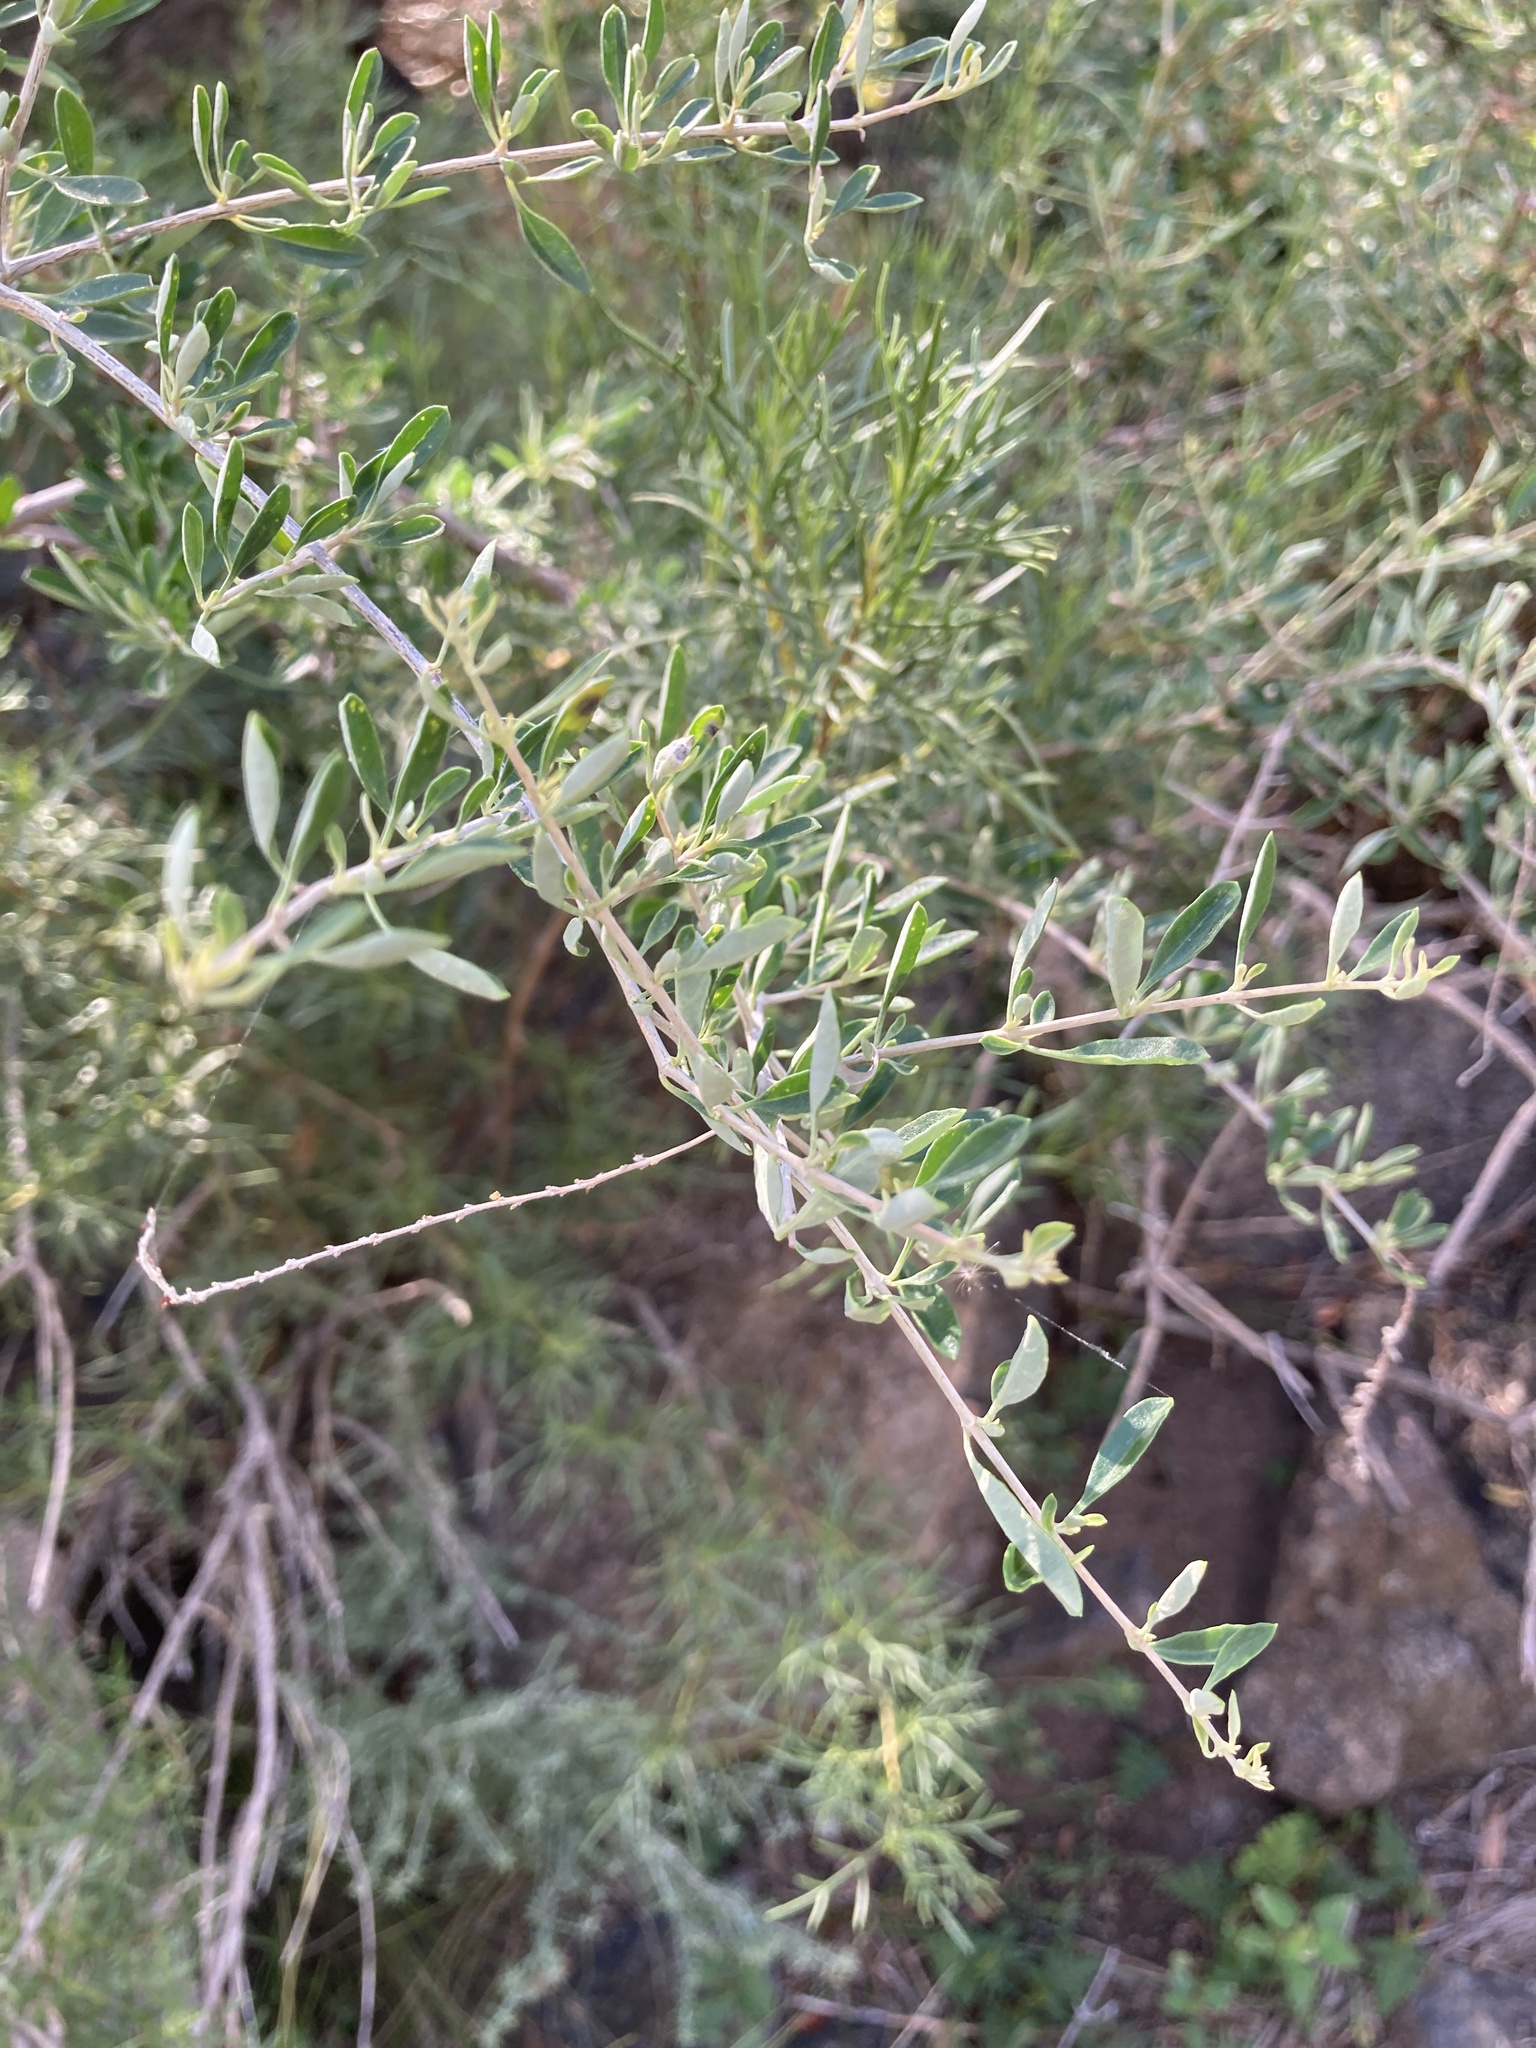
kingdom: Plantae
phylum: Tracheophyta
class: Magnoliopsida
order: Lamiales
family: Verbenaceae
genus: Aloysia
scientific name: Aloysia gratissima
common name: Common bee-brush
